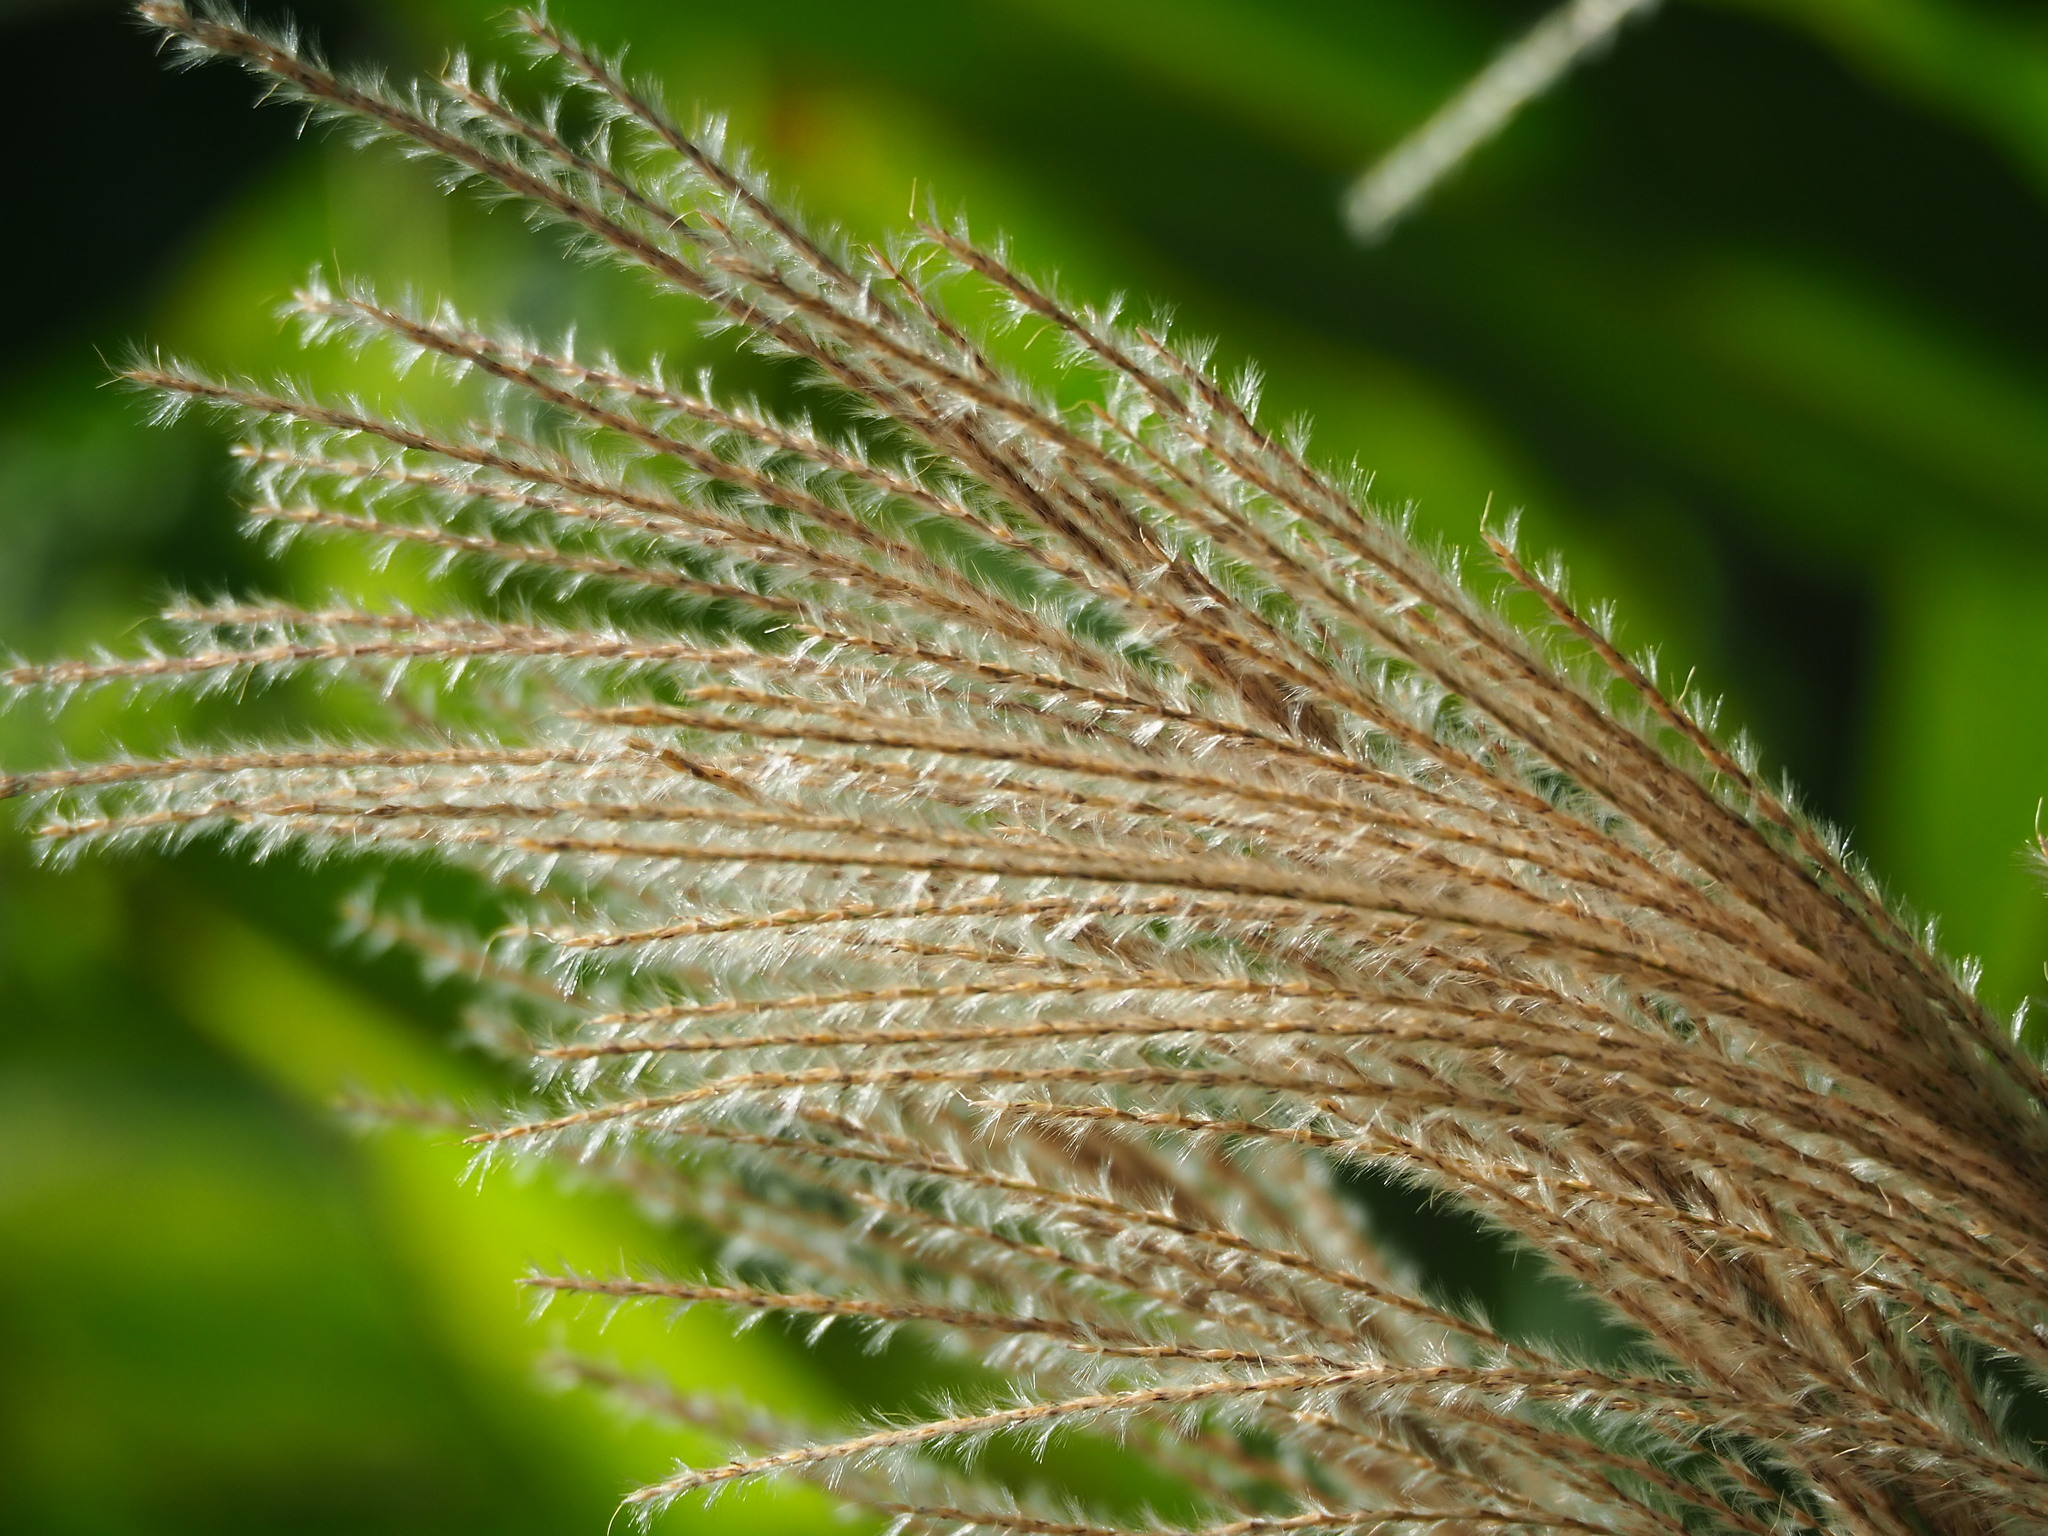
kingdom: Plantae
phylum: Tracheophyta
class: Liliopsida
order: Poales
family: Poaceae
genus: Miscanthus
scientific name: Miscanthus sinensis
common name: Chinese silvergrass
